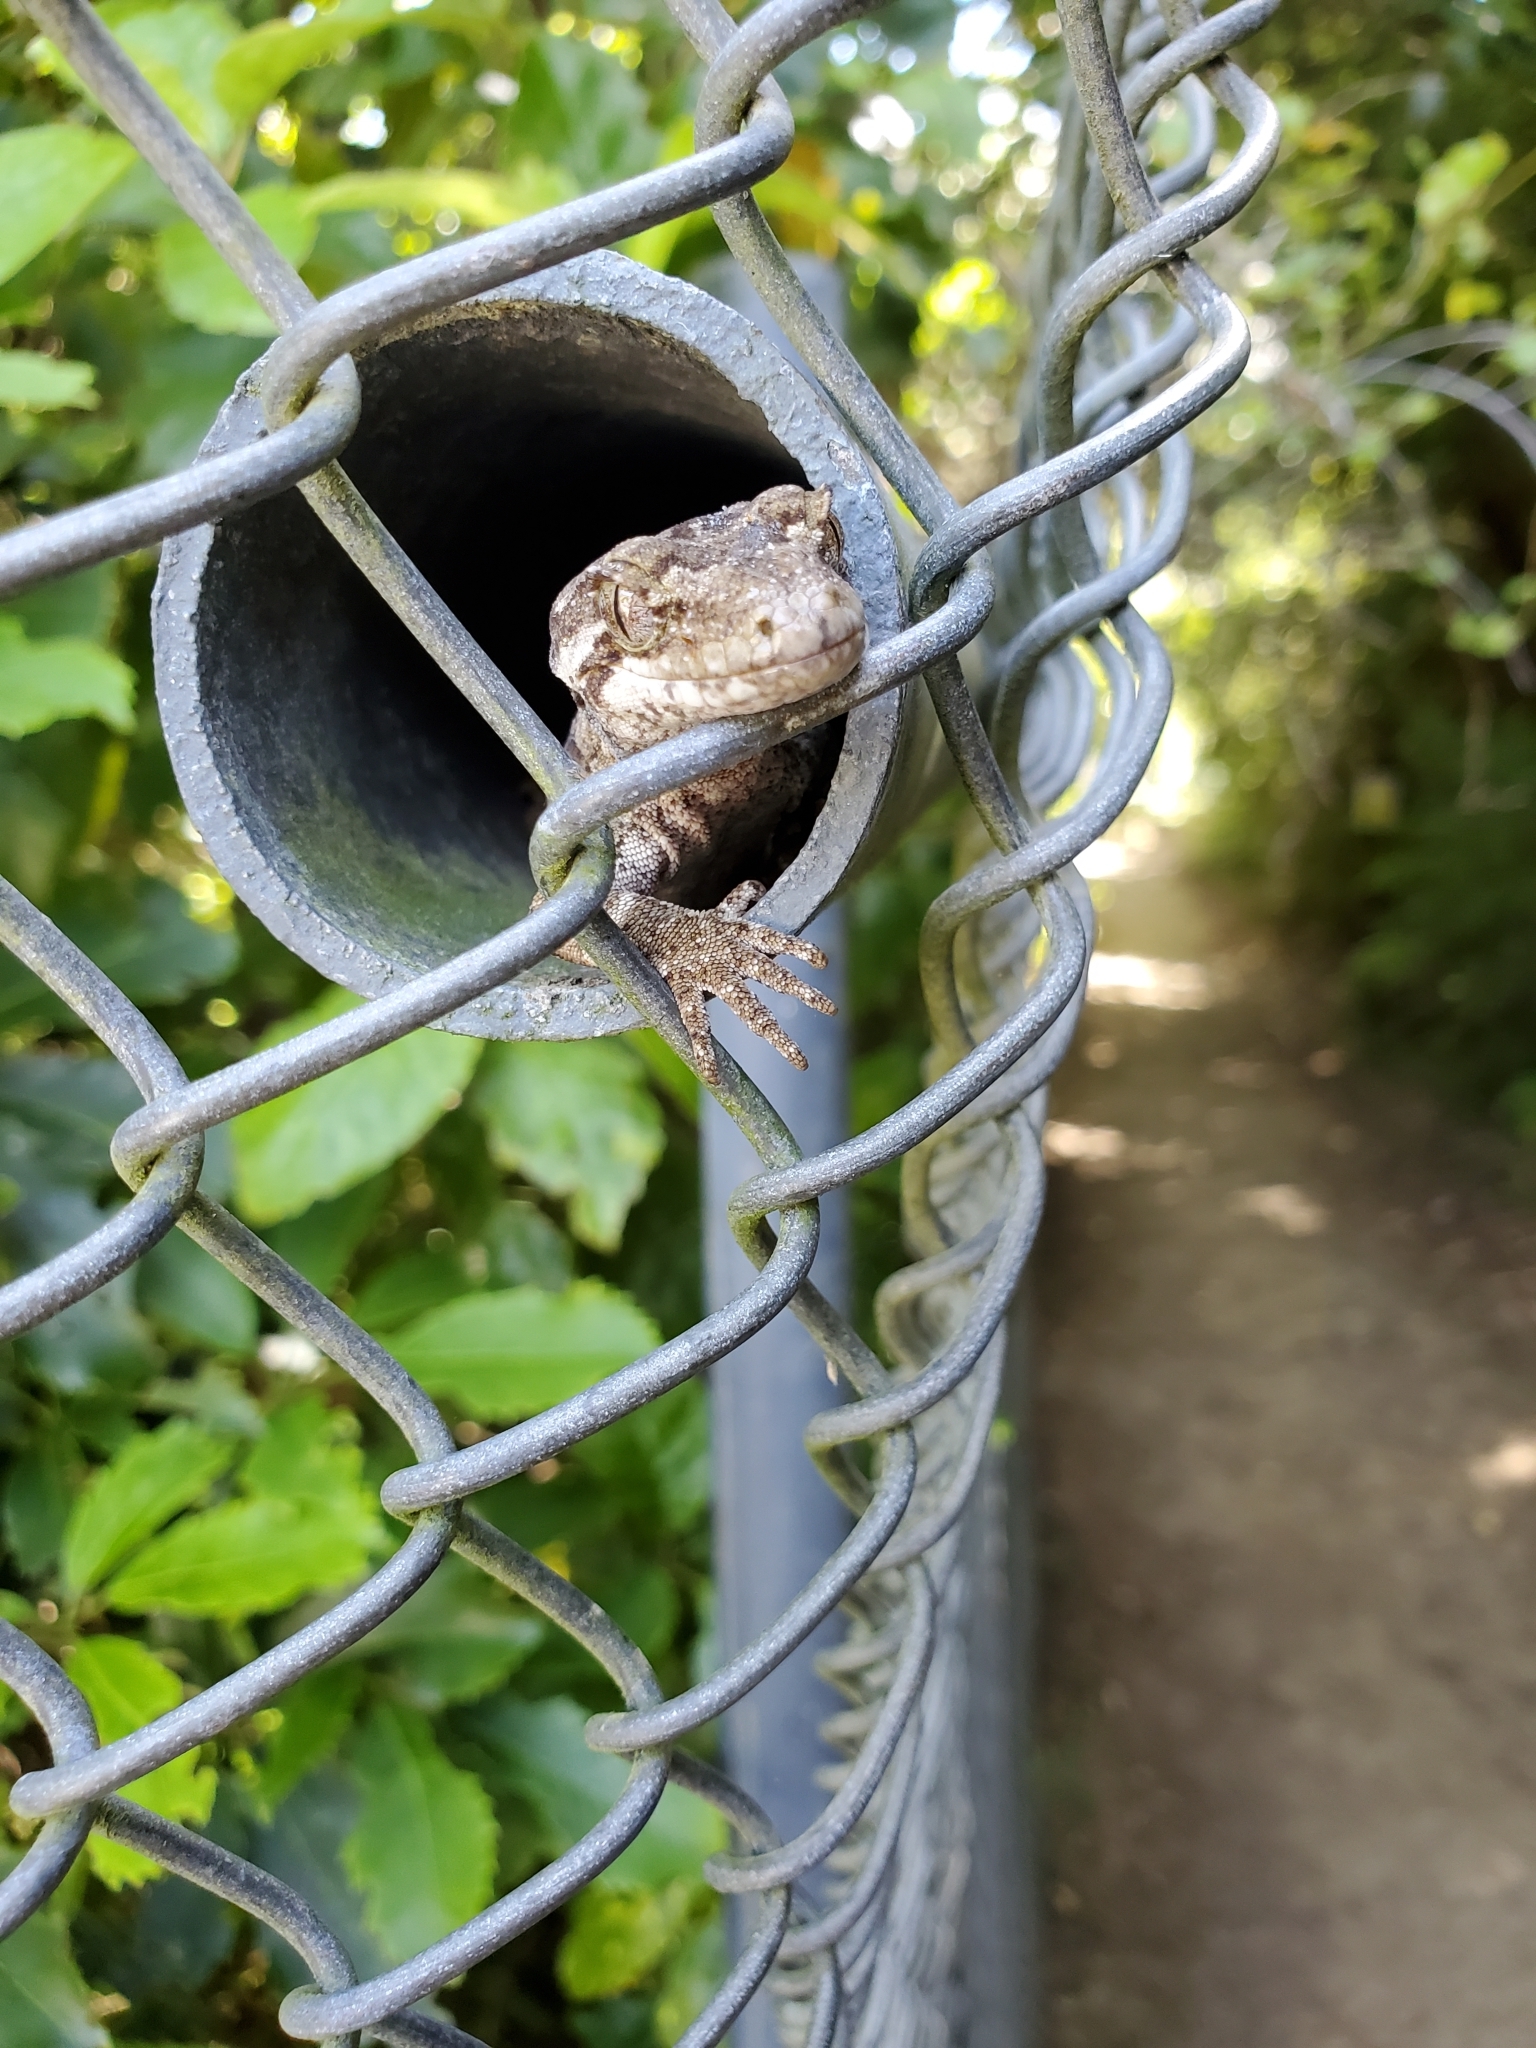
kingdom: Animalia
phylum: Chordata
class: Squamata
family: Diplodactylidae
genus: Mokopirirakau
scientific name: Mokopirirakau
